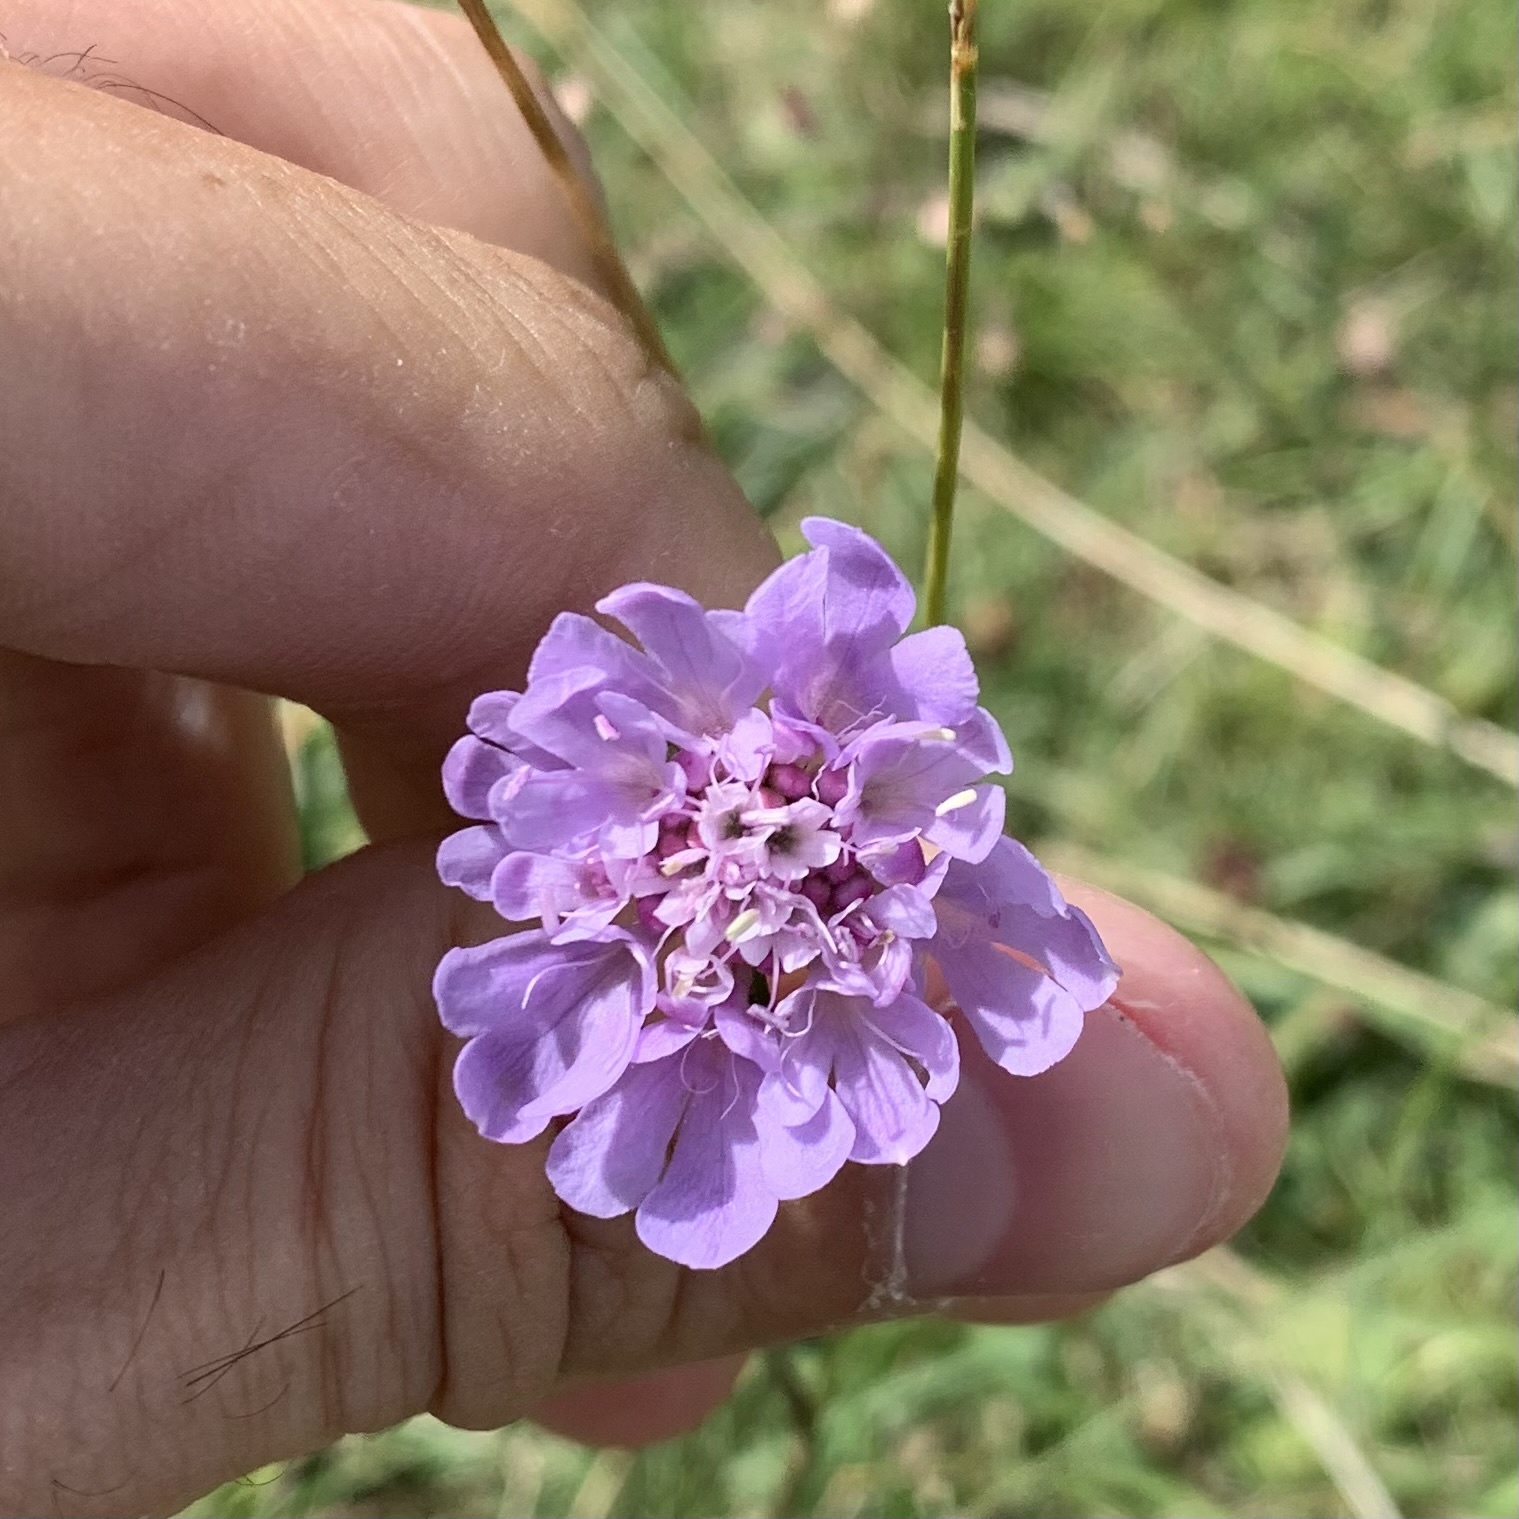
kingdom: Plantae
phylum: Tracheophyta
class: Magnoliopsida
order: Dipsacales
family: Caprifoliaceae
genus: Scabiosa
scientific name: Scabiosa columbaria
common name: Small scabious
